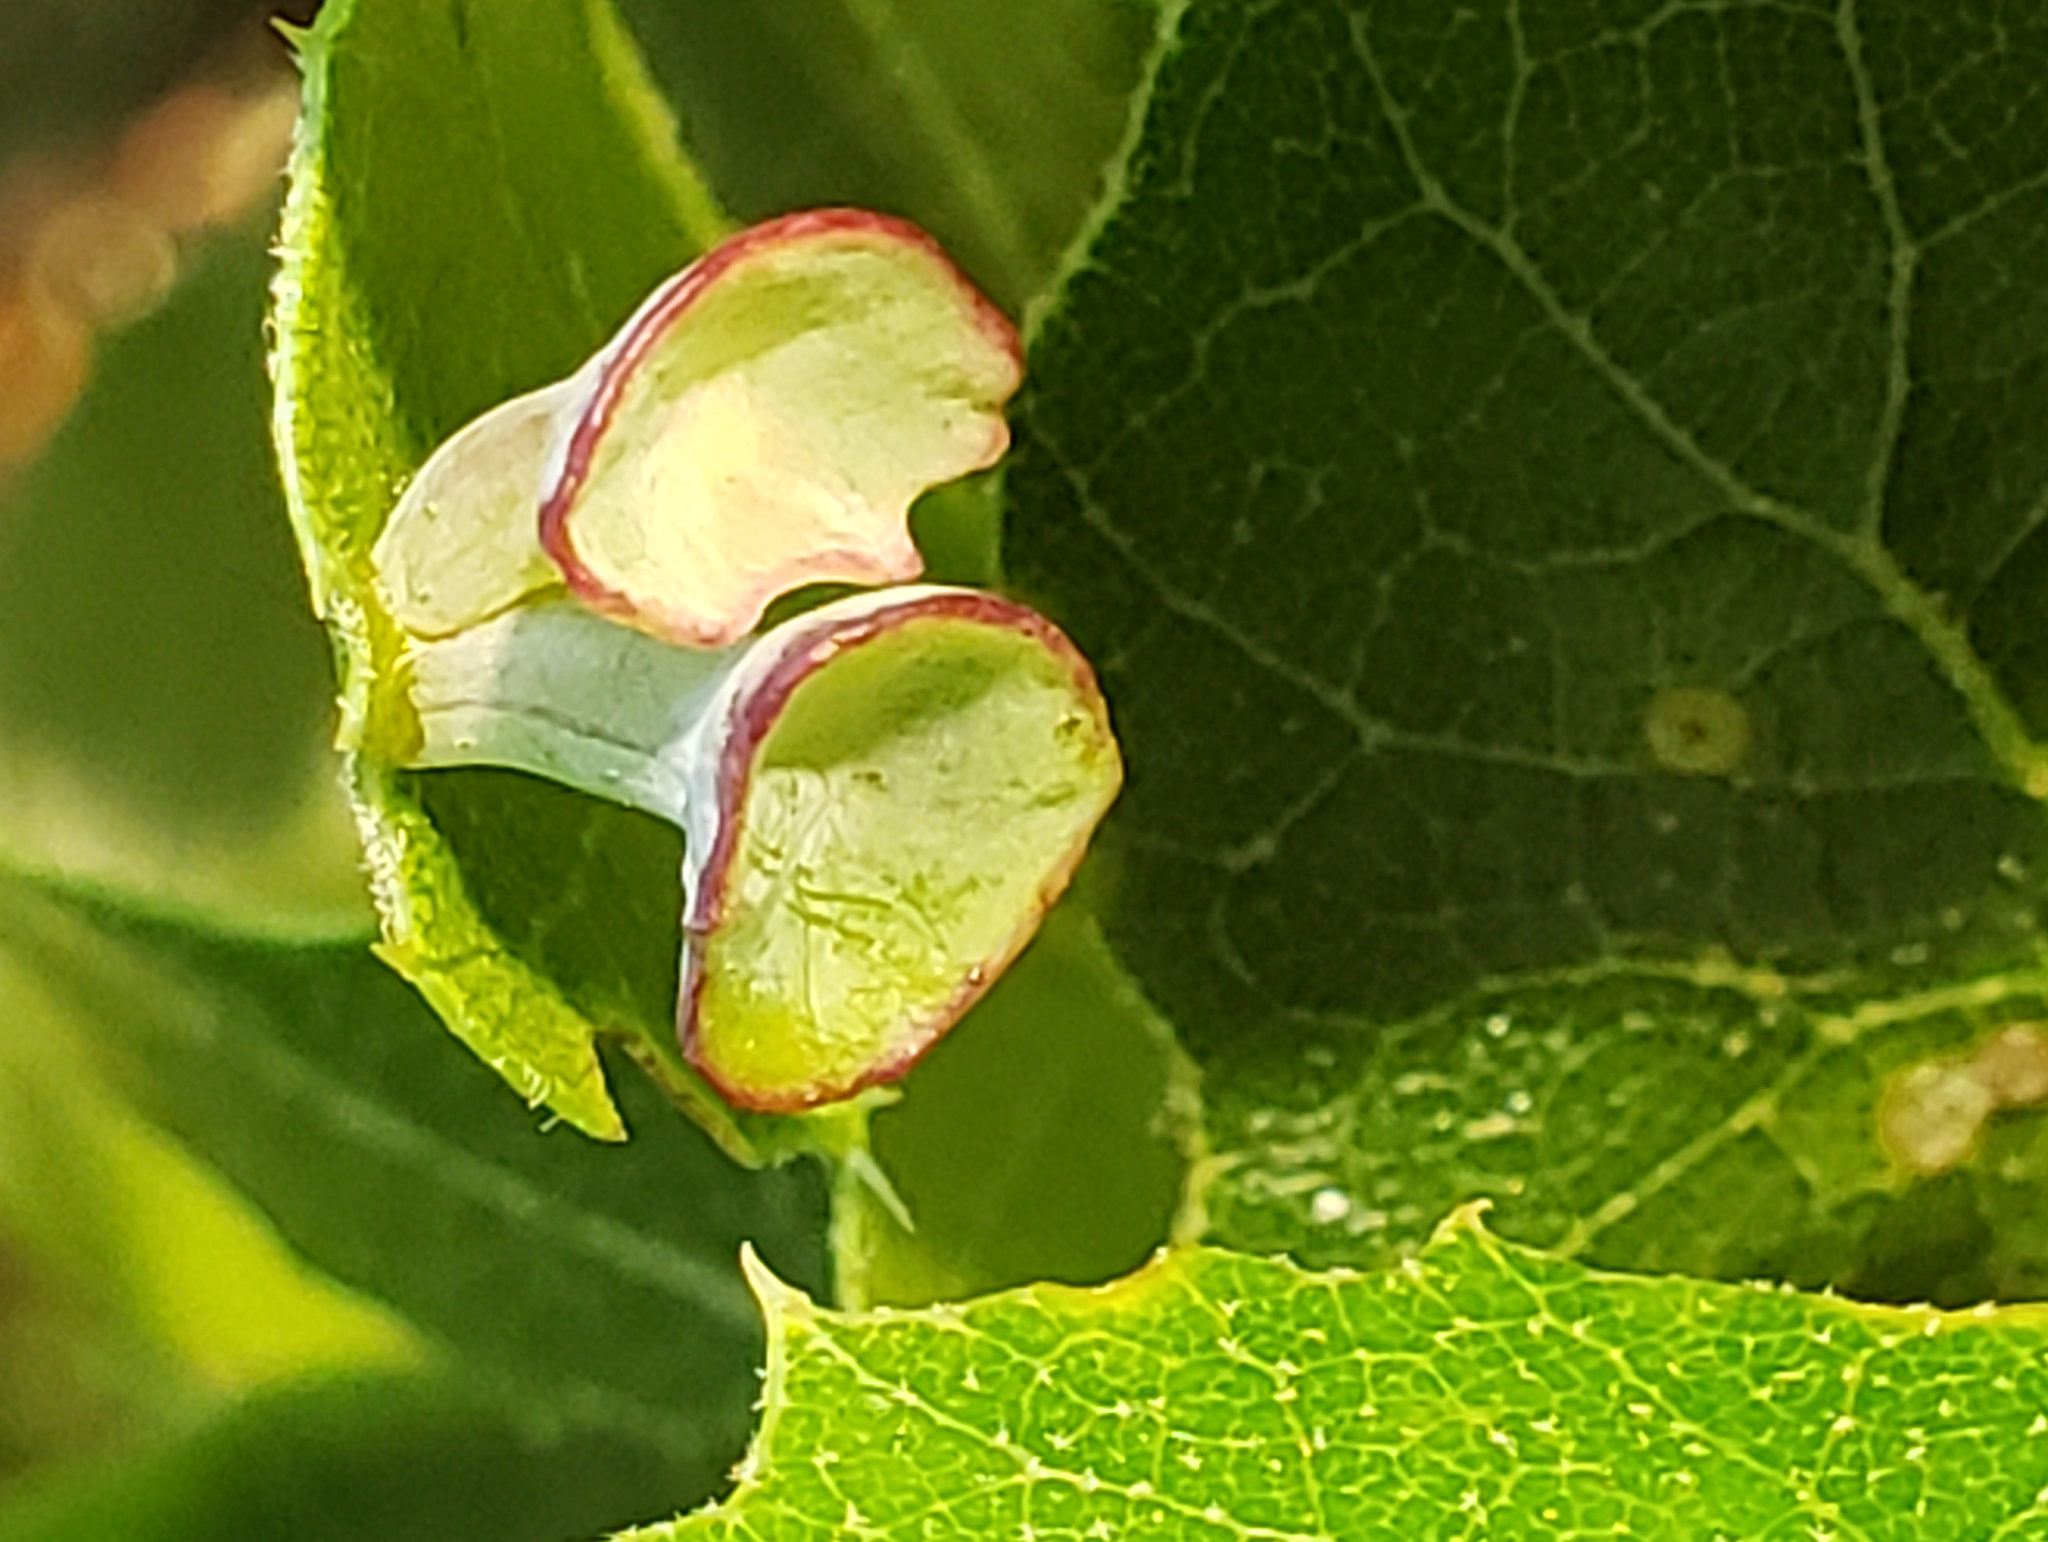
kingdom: Animalia
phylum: Arthropoda
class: Insecta
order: Hymenoptera
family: Cynipidae
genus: Amphibolips
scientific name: Amphibolips quercuspomiformis
